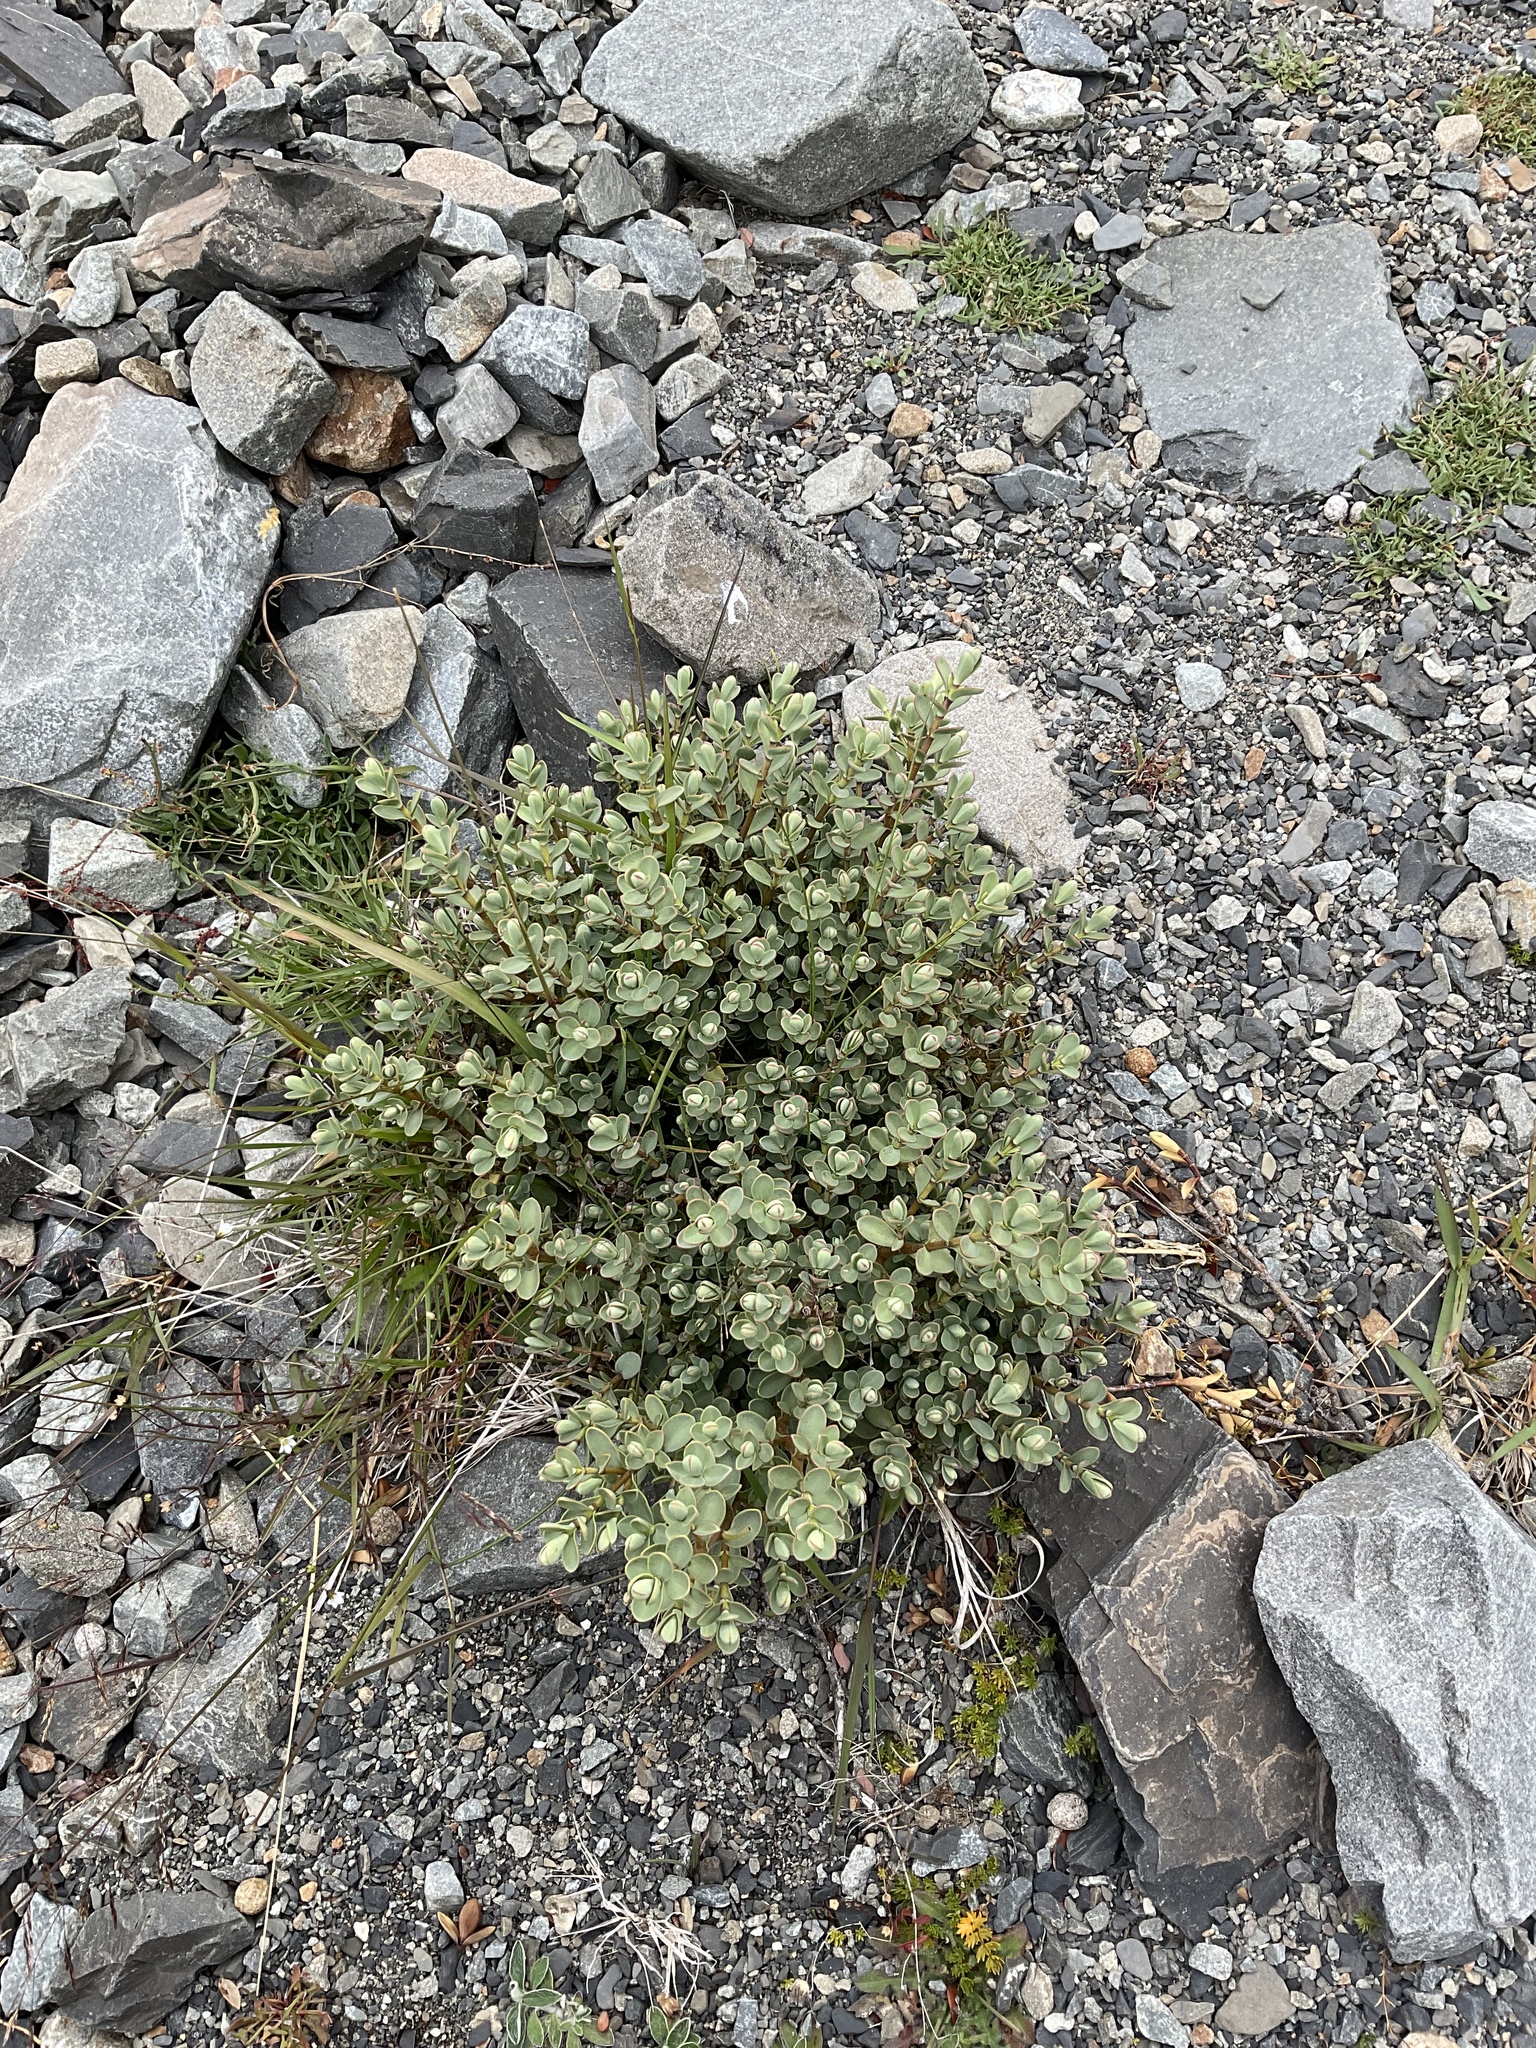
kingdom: Plantae
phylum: Tracheophyta
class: Magnoliopsida
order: Lamiales
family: Plantaginaceae
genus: Veronica
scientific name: Veronica pinguifolia
